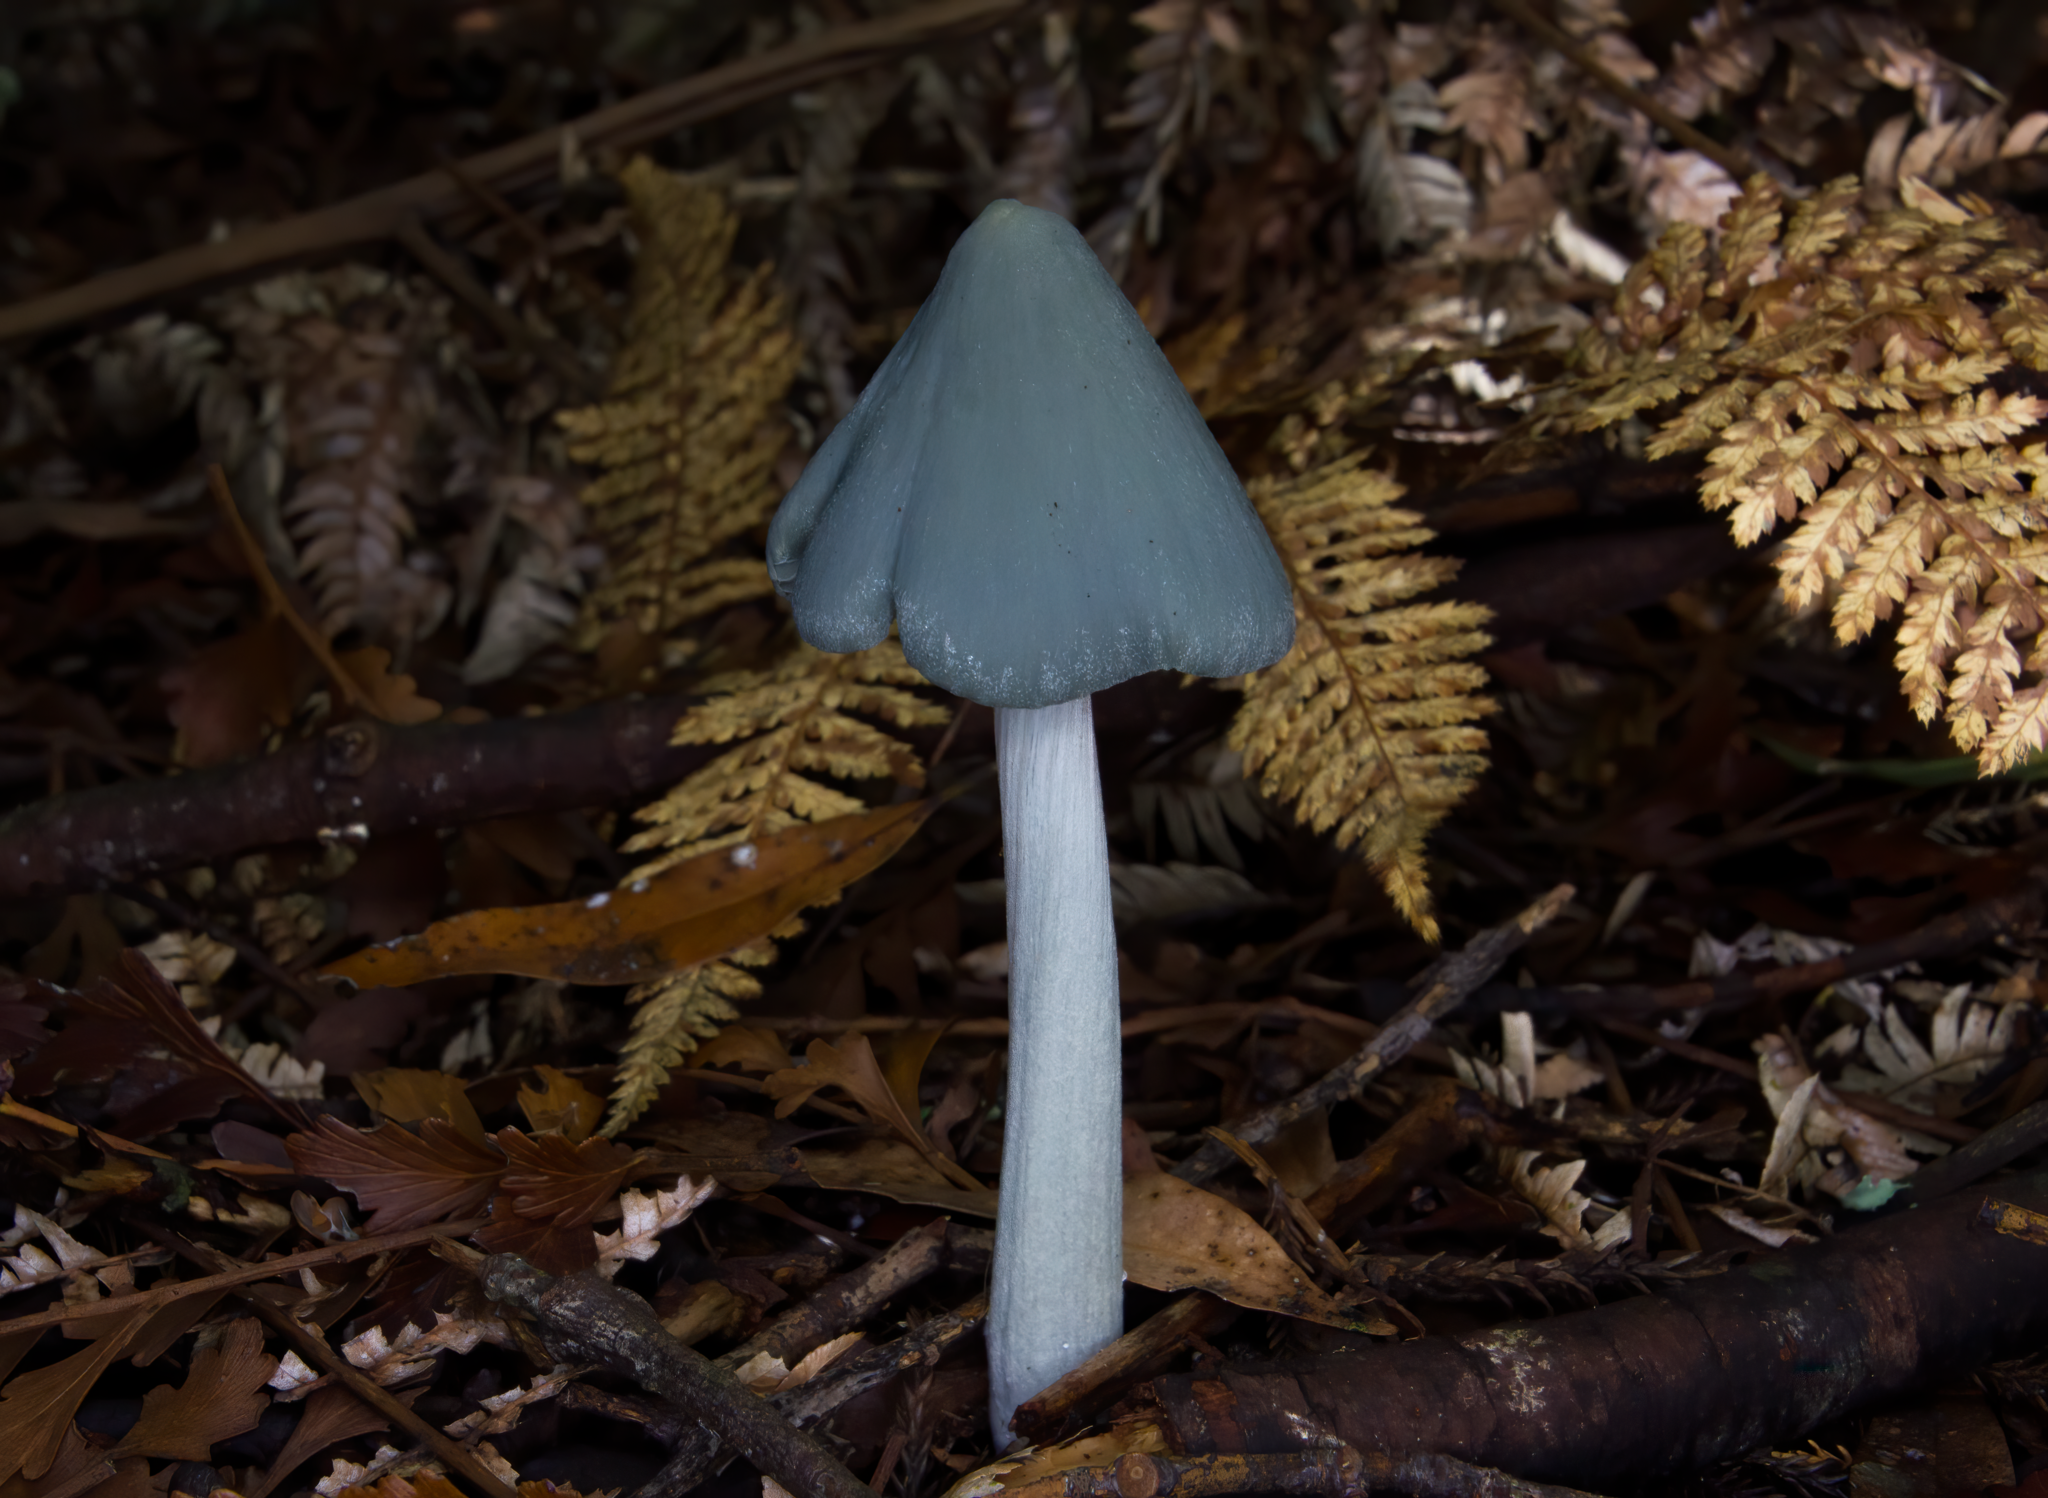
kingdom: Fungi
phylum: Basidiomycota
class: Agaricomycetes
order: Agaricales
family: Entolomataceae
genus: Entoloma
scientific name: Entoloma hochstetteri
